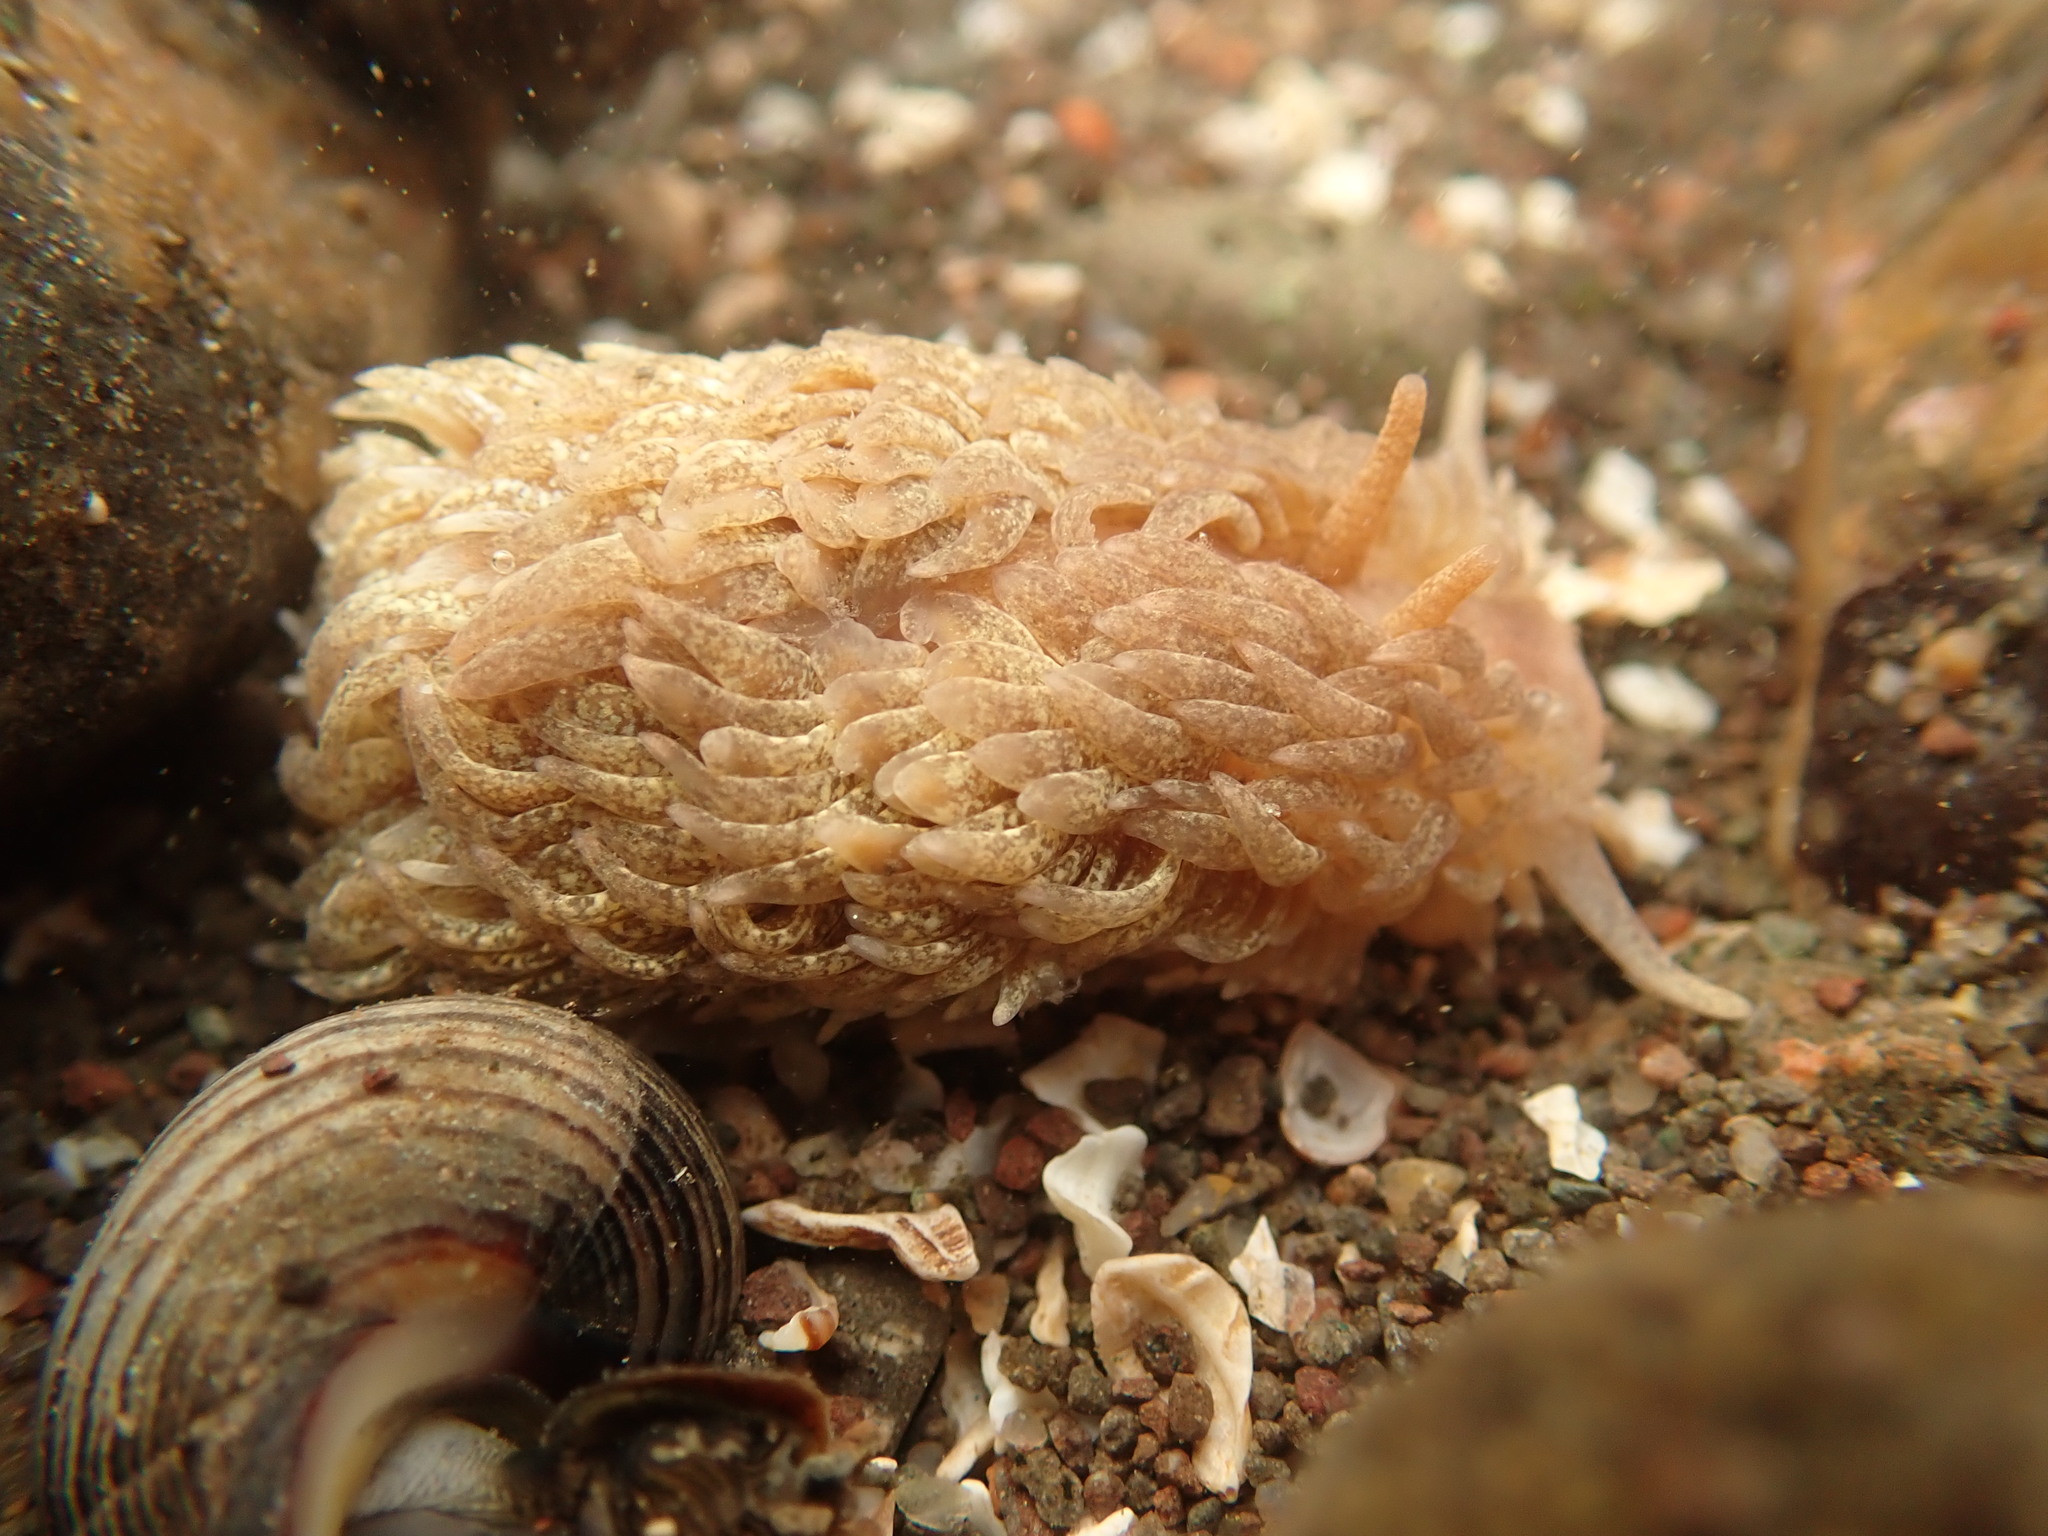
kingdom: Animalia
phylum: Mollusca
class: Gastropoda
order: Nudibranchia
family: Aeolidiidae
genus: Aeolidia
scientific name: Aeolidia papillosa
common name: Common grey sea slug
